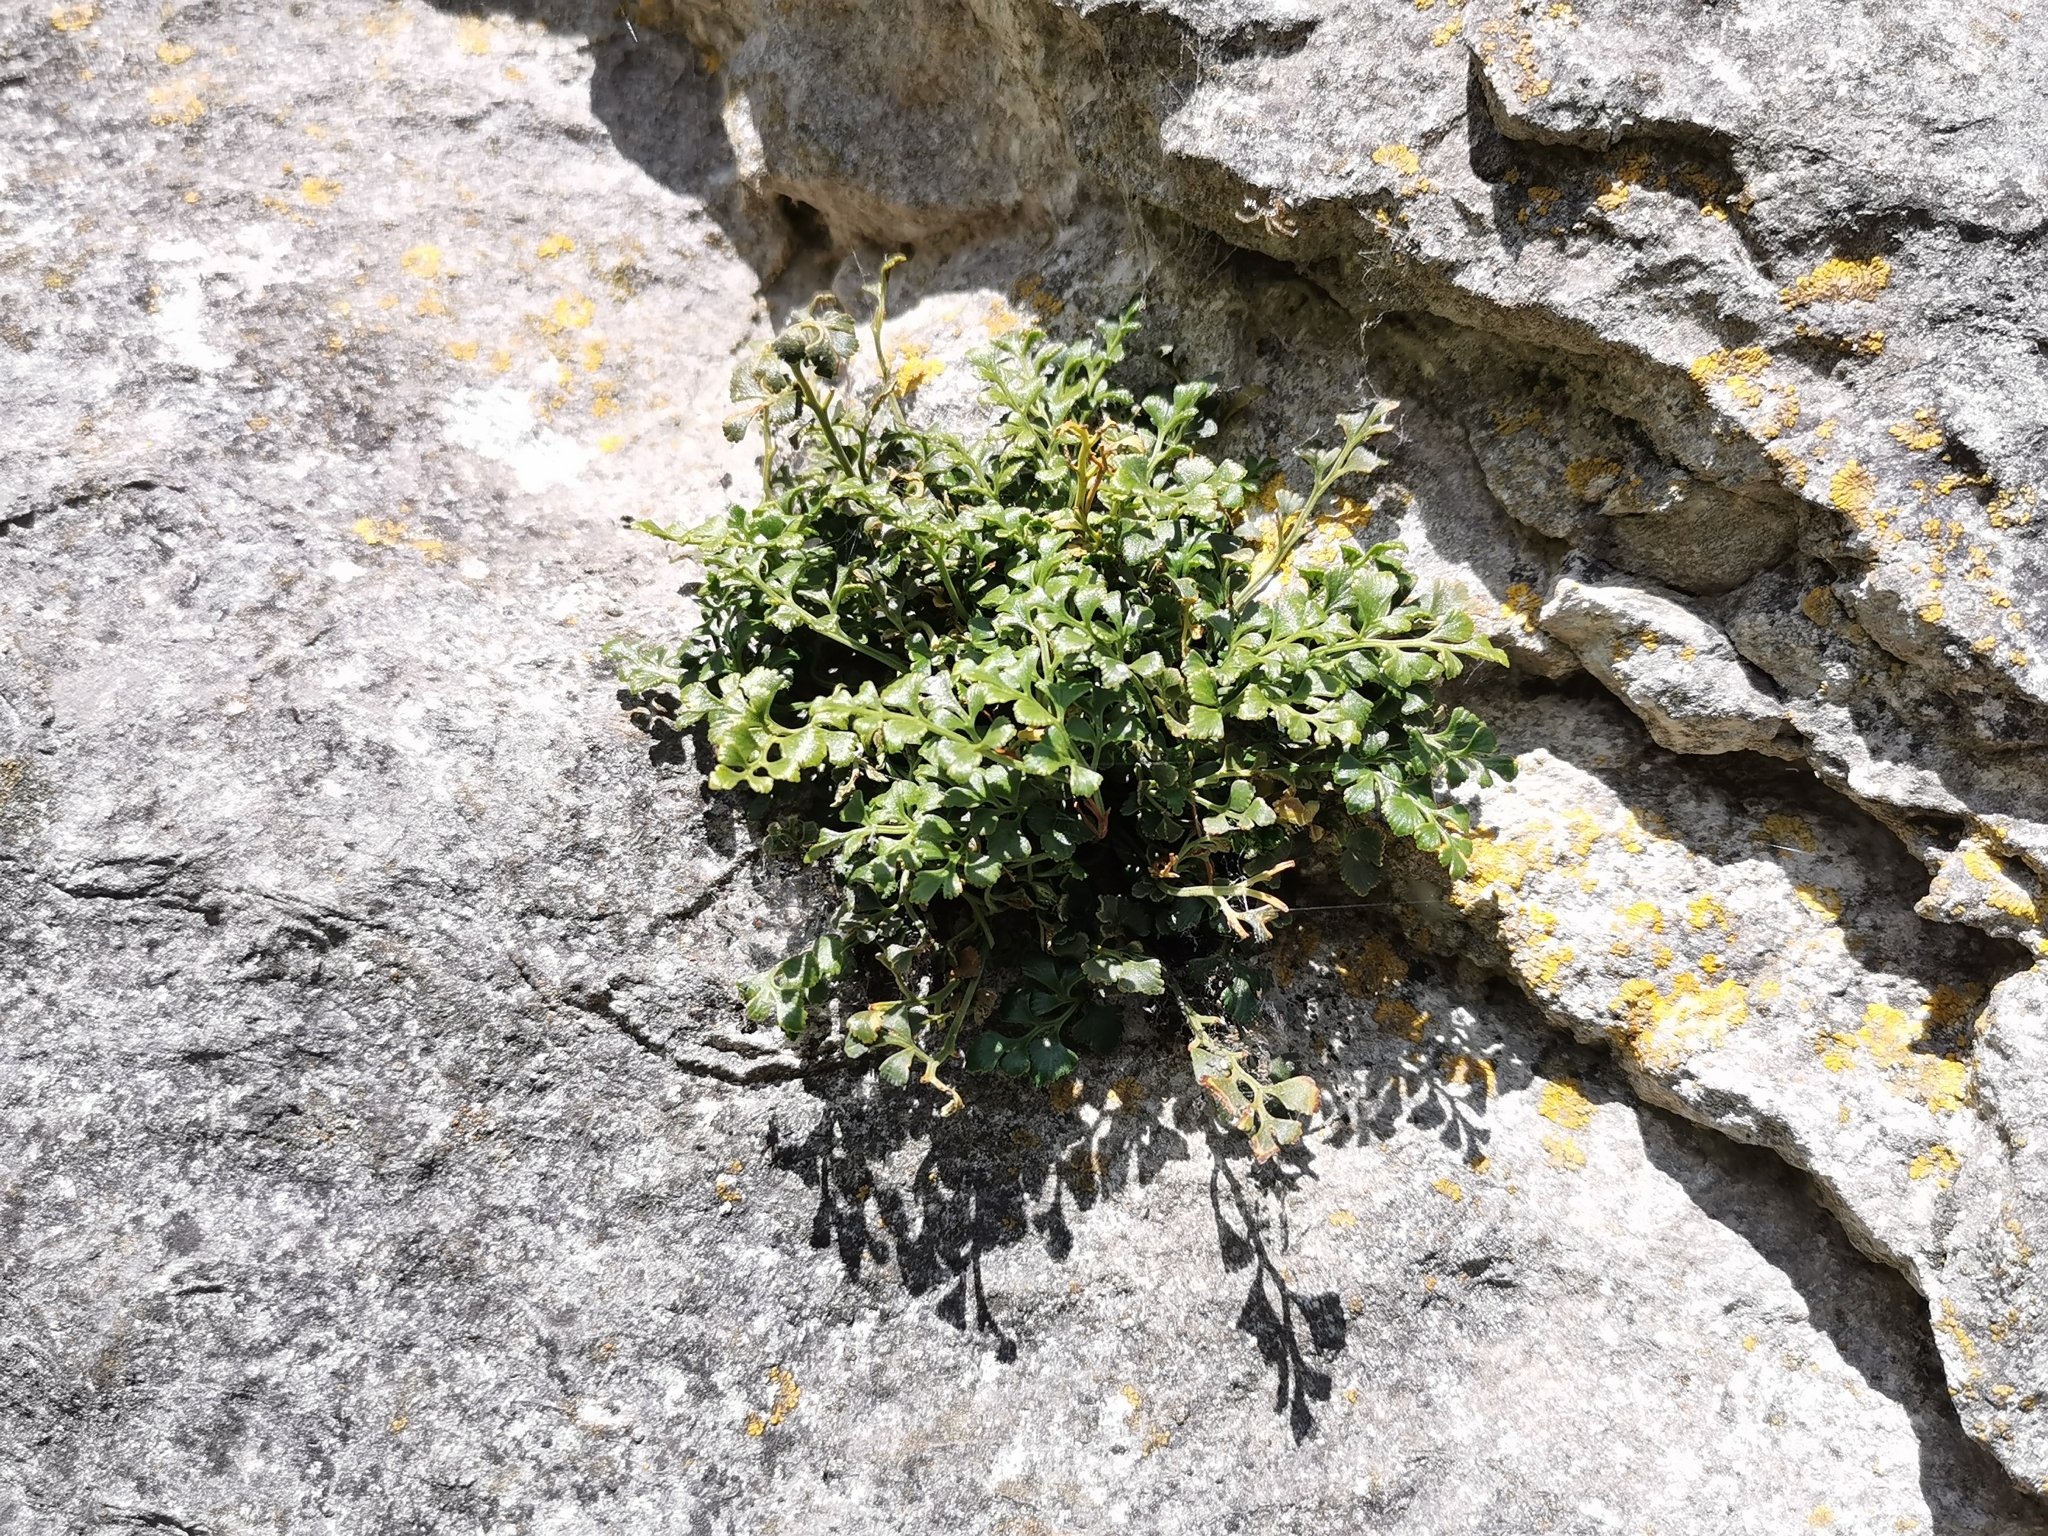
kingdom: Plantae
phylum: Tracheophyta
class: Polypodiopsida
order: Polypodiales
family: Aspleniaceae
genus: Asplenium
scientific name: Asplenium ruta-muraria
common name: Wall-rue
